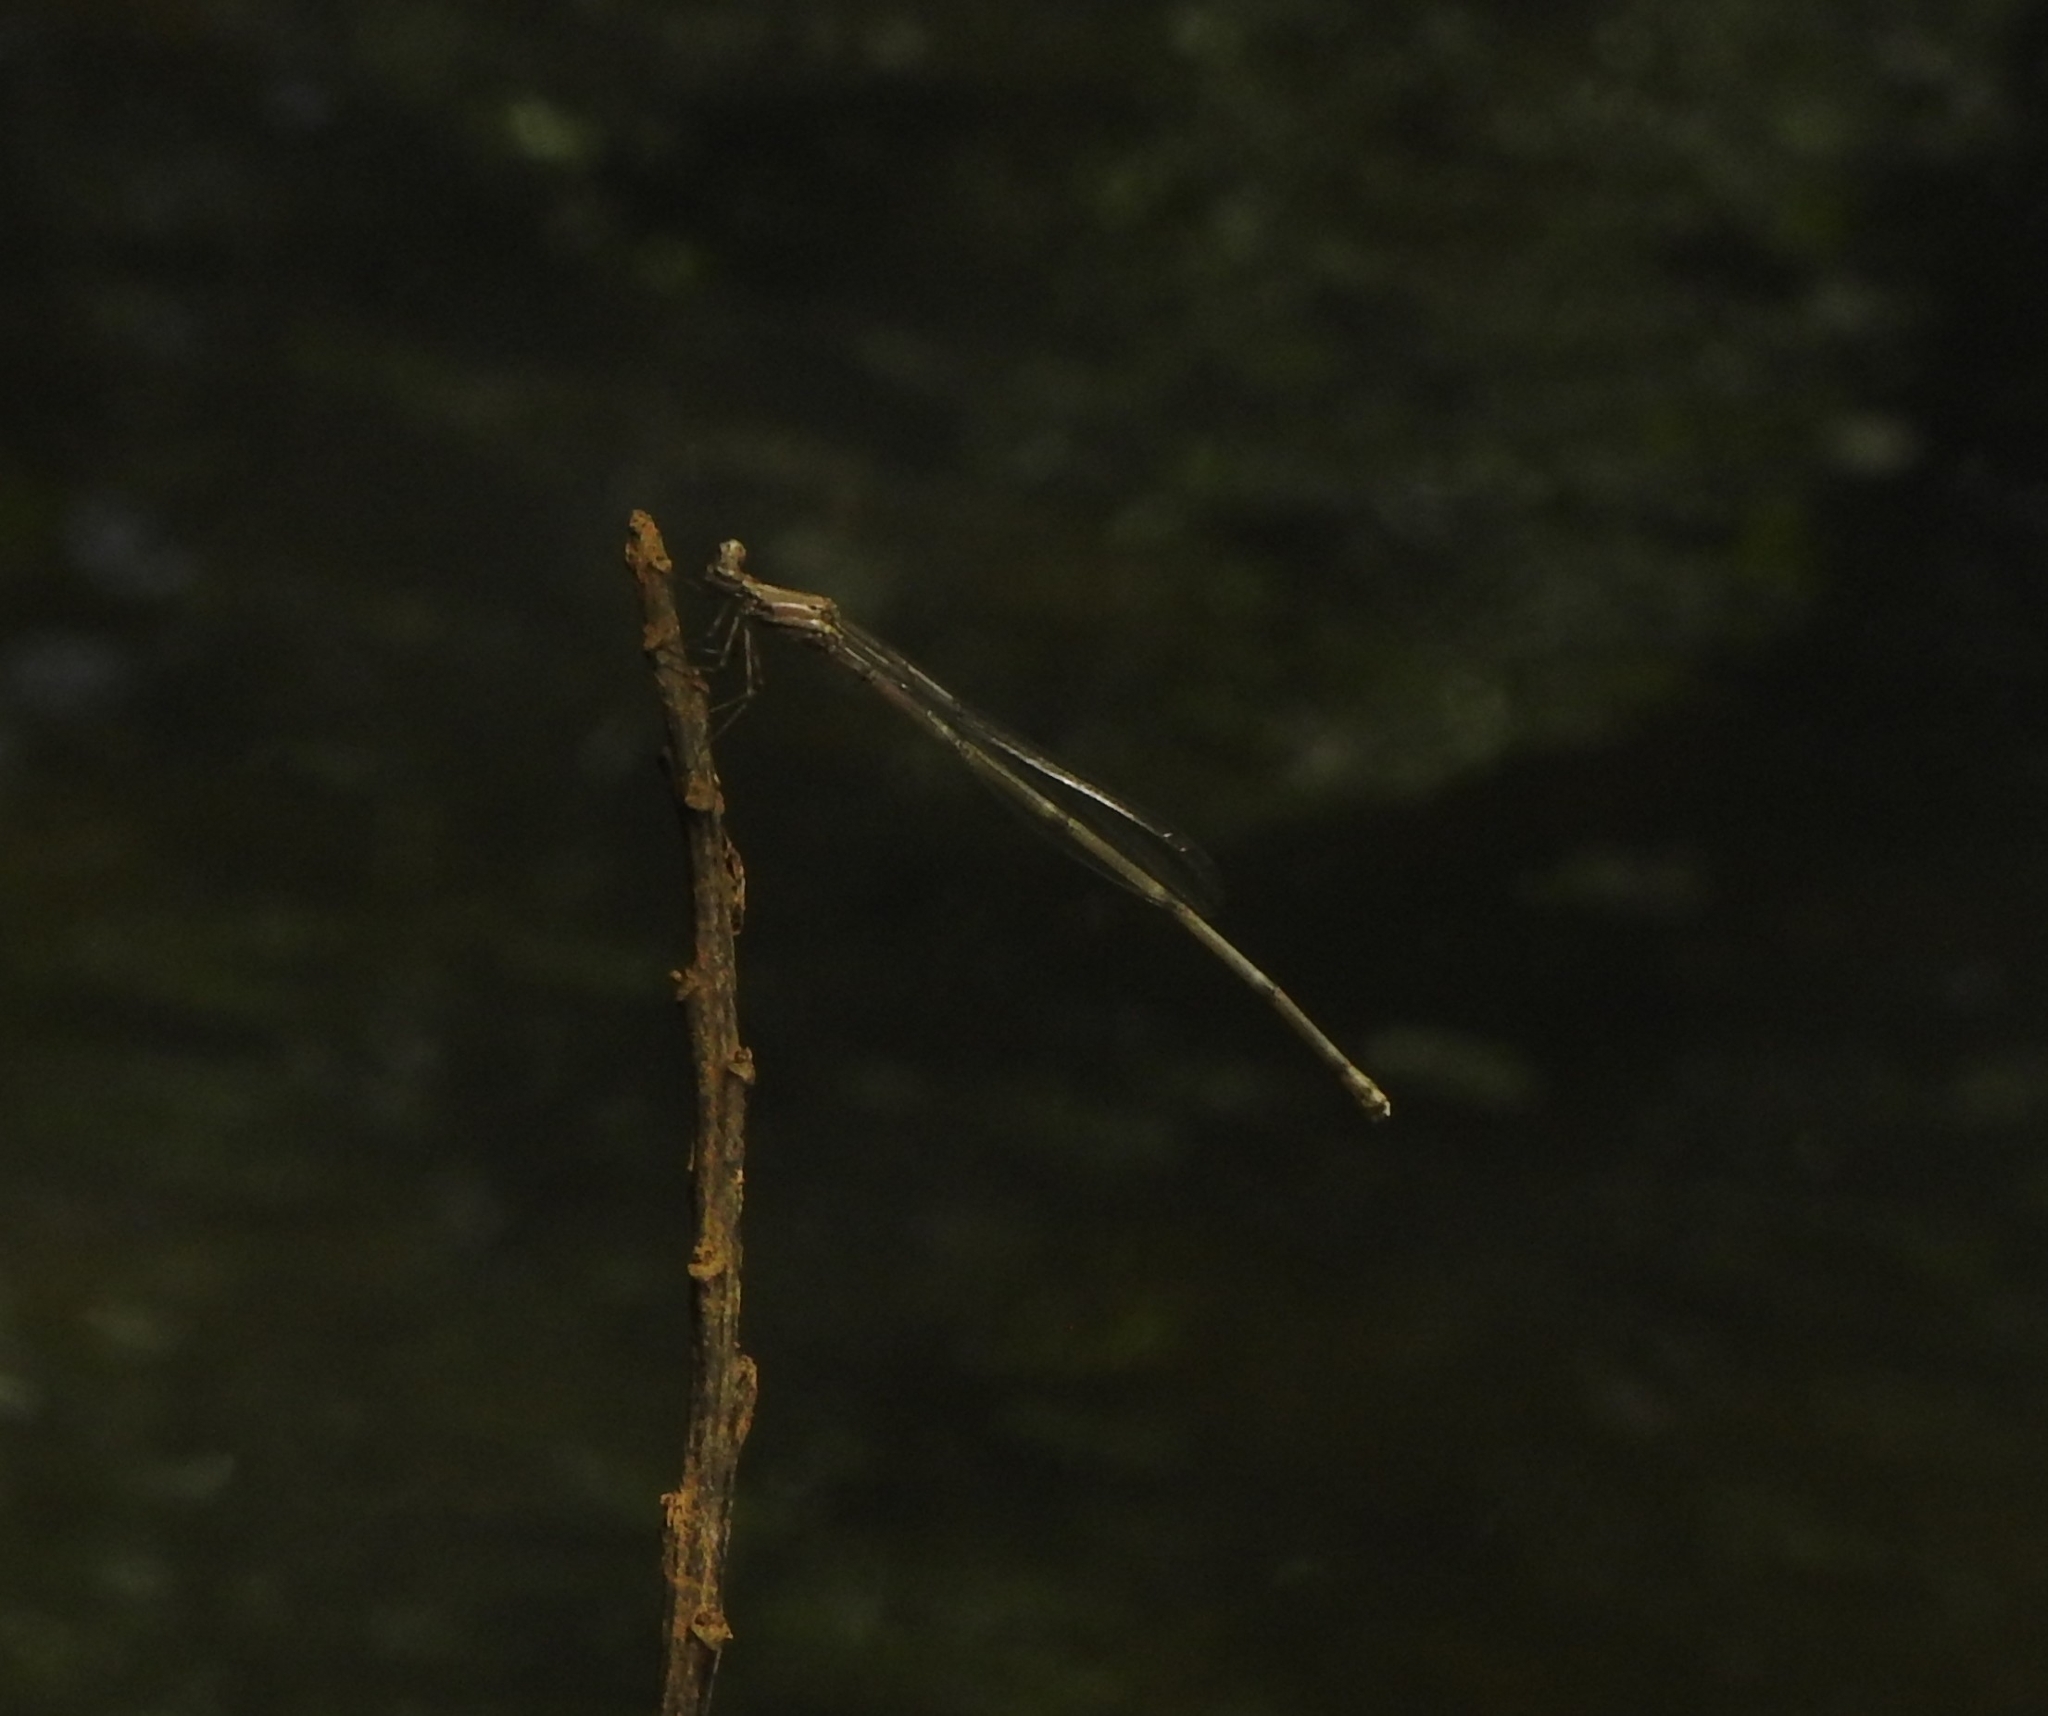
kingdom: Animalia
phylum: Arthropoda
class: Insecta
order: Odonata
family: Platycnemididae
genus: Prodasineura
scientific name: Prodasineura verticalis
